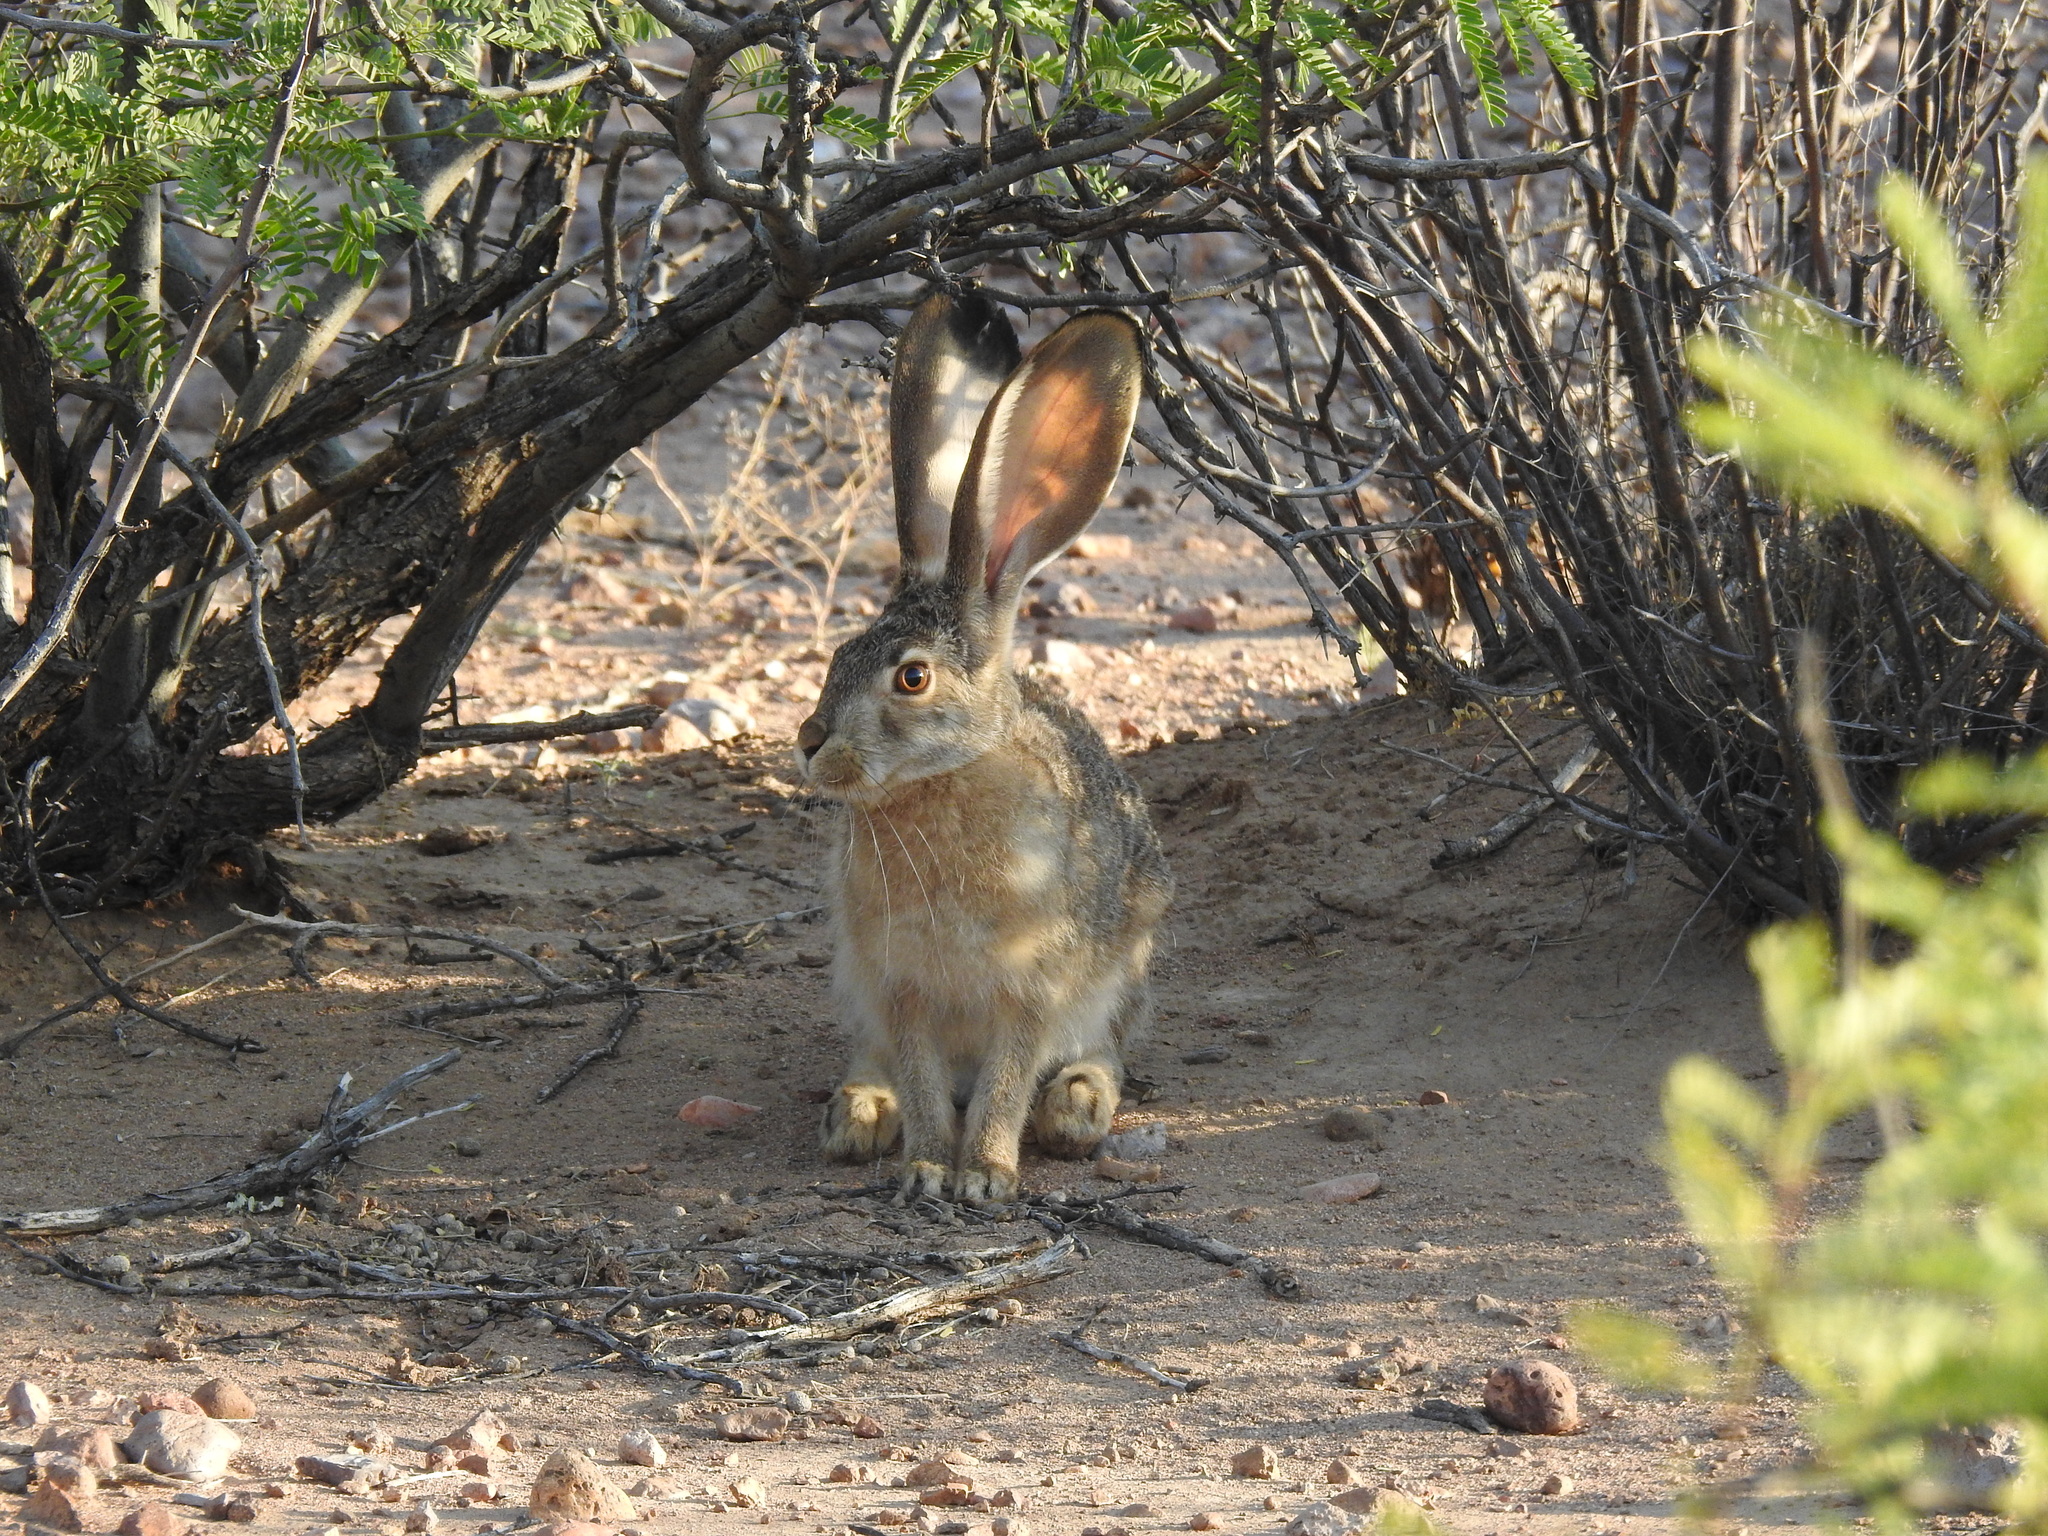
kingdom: Animalia
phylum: Chordata
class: Mammalia
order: Lagomorpha
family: Leporidae
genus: Lepus
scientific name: Lepus californicus
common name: Black-tailed jackrabbit
